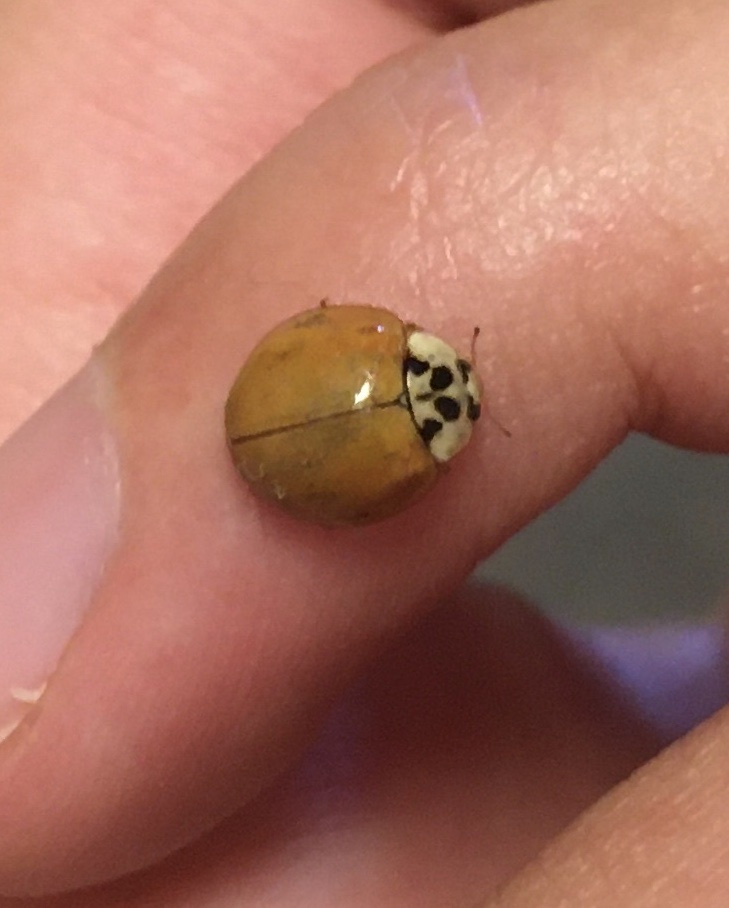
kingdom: Animalia
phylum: Arthropoda
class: Insecta
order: Coleoptera
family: Coccinellidae
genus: Harmonia
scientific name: Harmonia axyridis
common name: Harlequin ladybird
